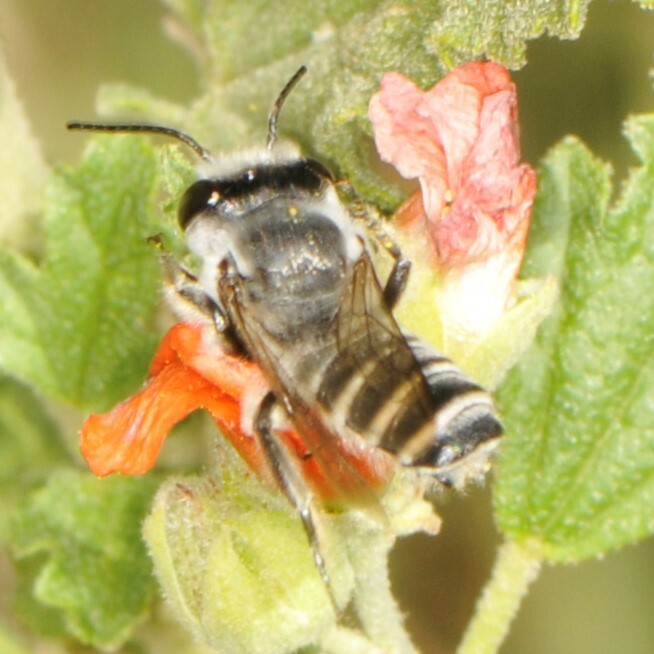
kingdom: Animalia
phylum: Arthropoda
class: Insecta
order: Hymenoptera
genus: Litomegachile
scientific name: Litomegachile
